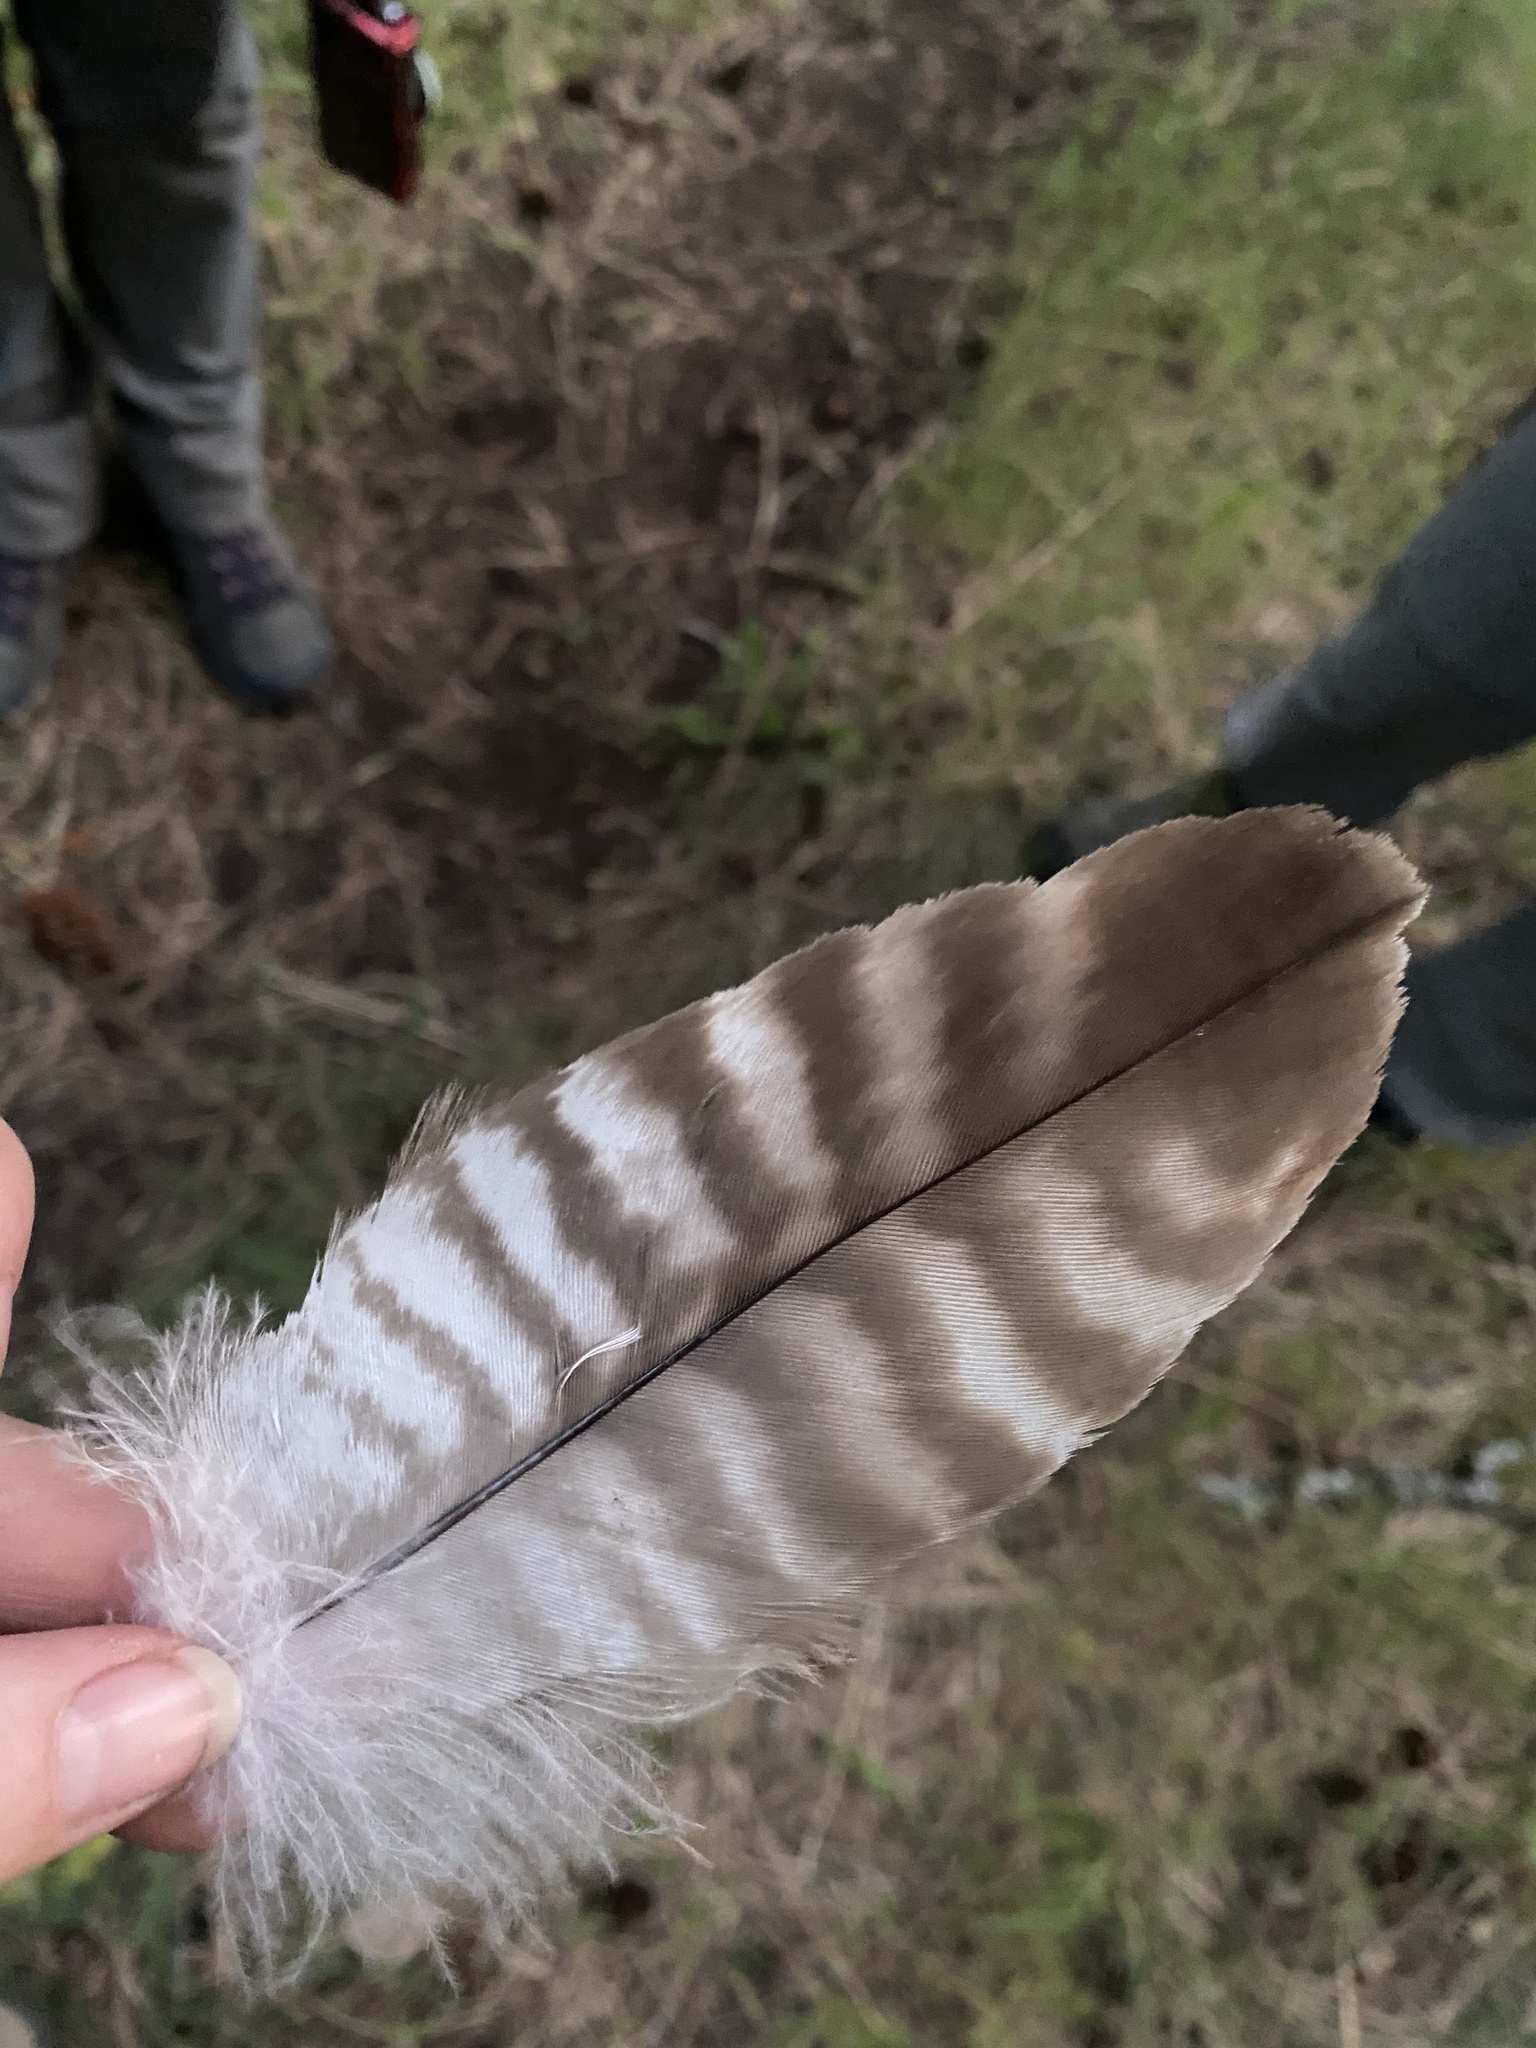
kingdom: Animalia
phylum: Chordata
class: Aves
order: Accipitriformes
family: Accipitridae
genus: Buteo
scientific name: Buteo jamaicensis
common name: Red-tailed hawk
